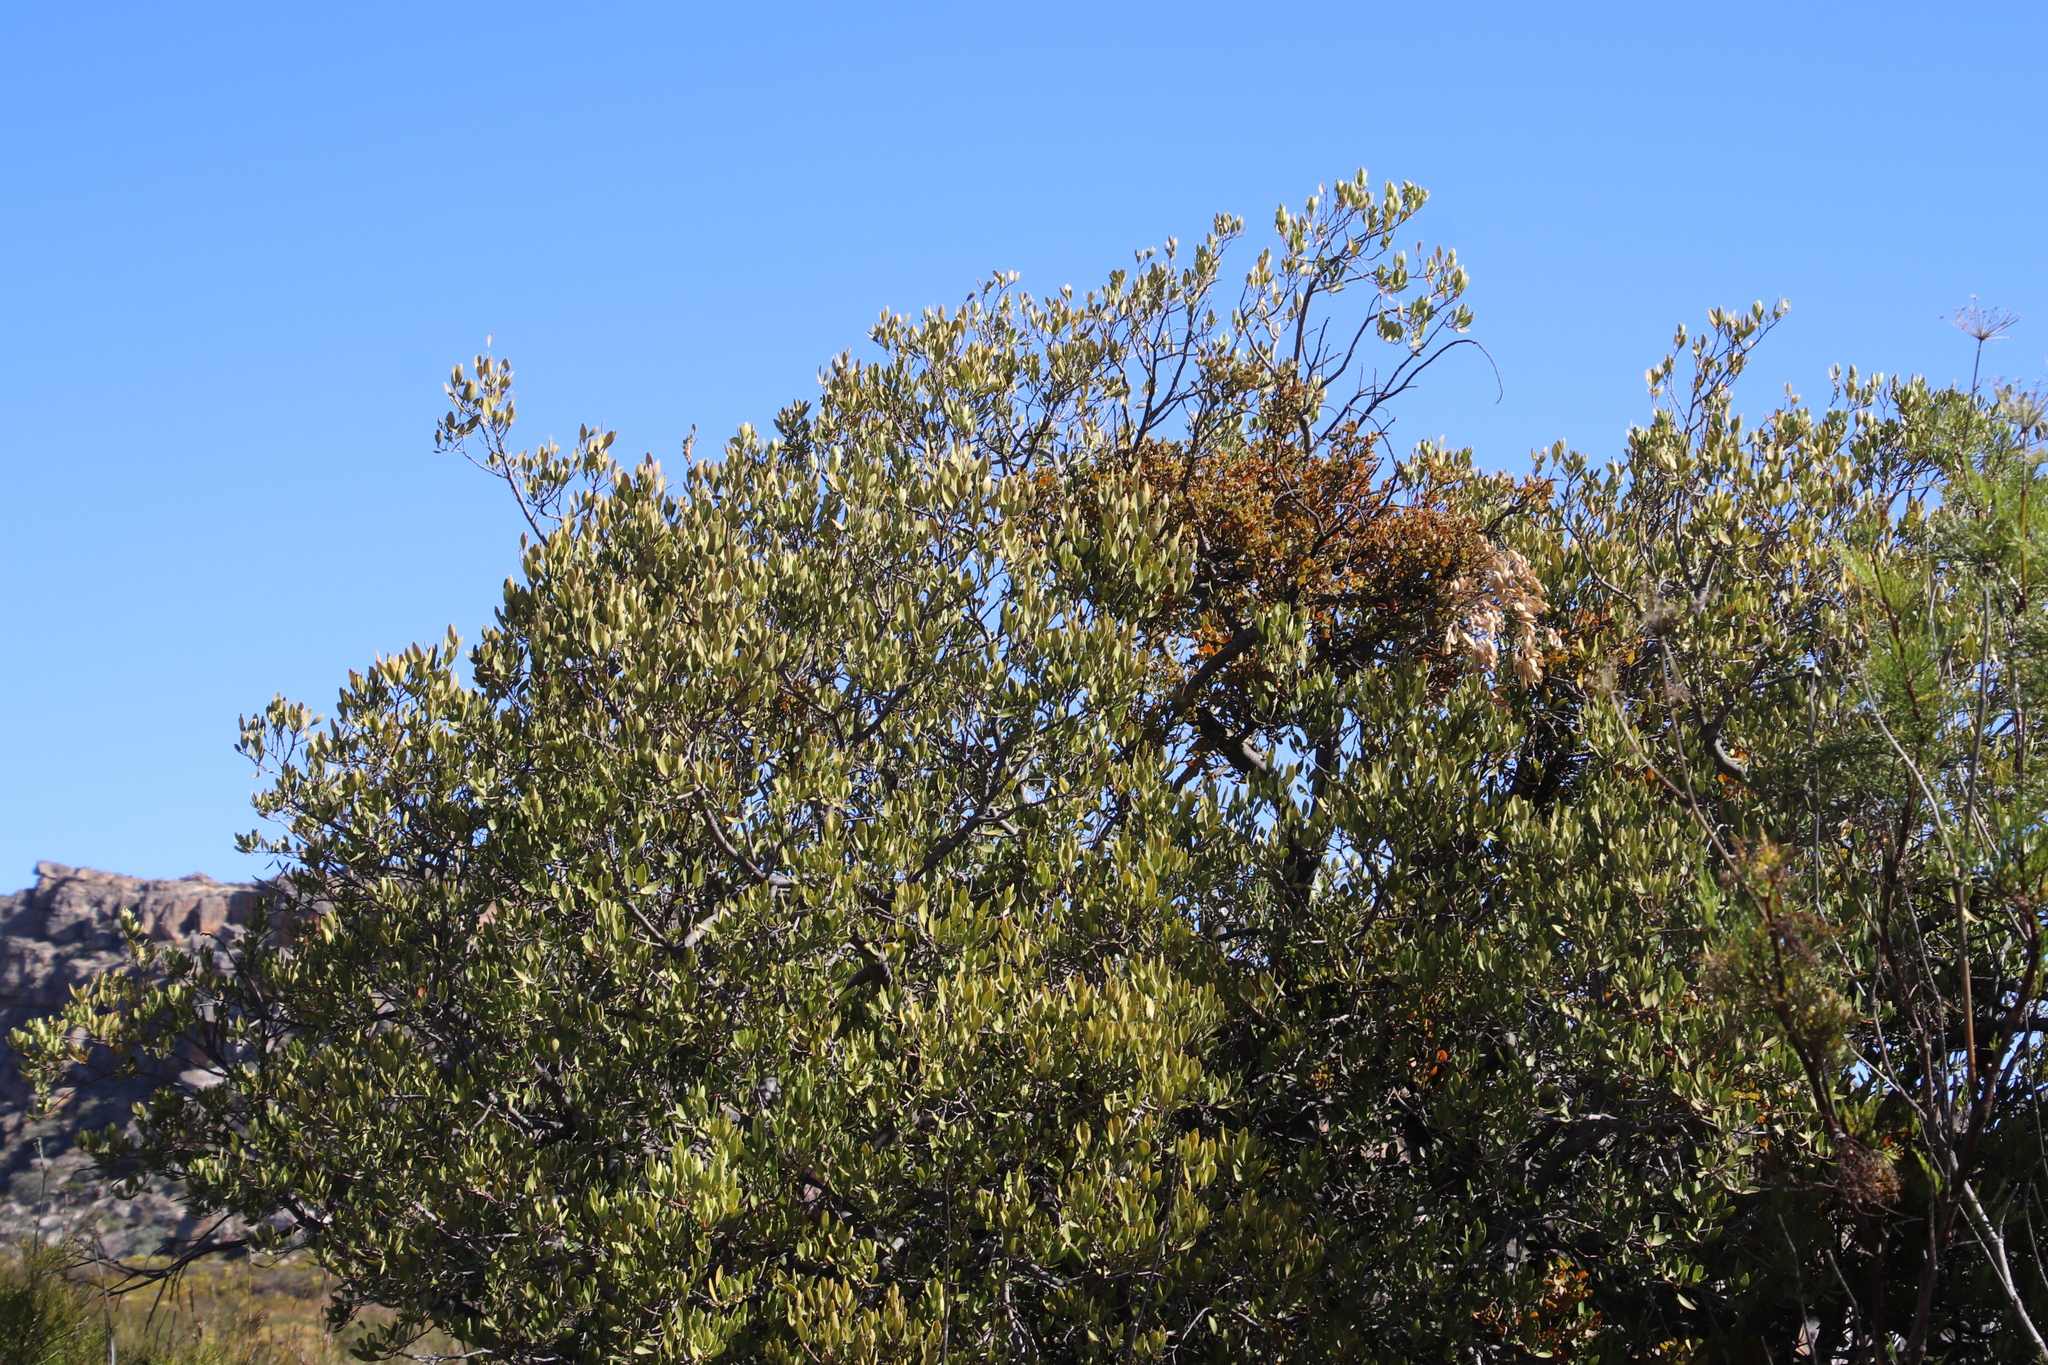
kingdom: Plantae
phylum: Tracheophyta
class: Magnoliopsida
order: Celastrales
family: Celastraceae
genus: Gymnosporia
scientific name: Gymnosporia laurina
